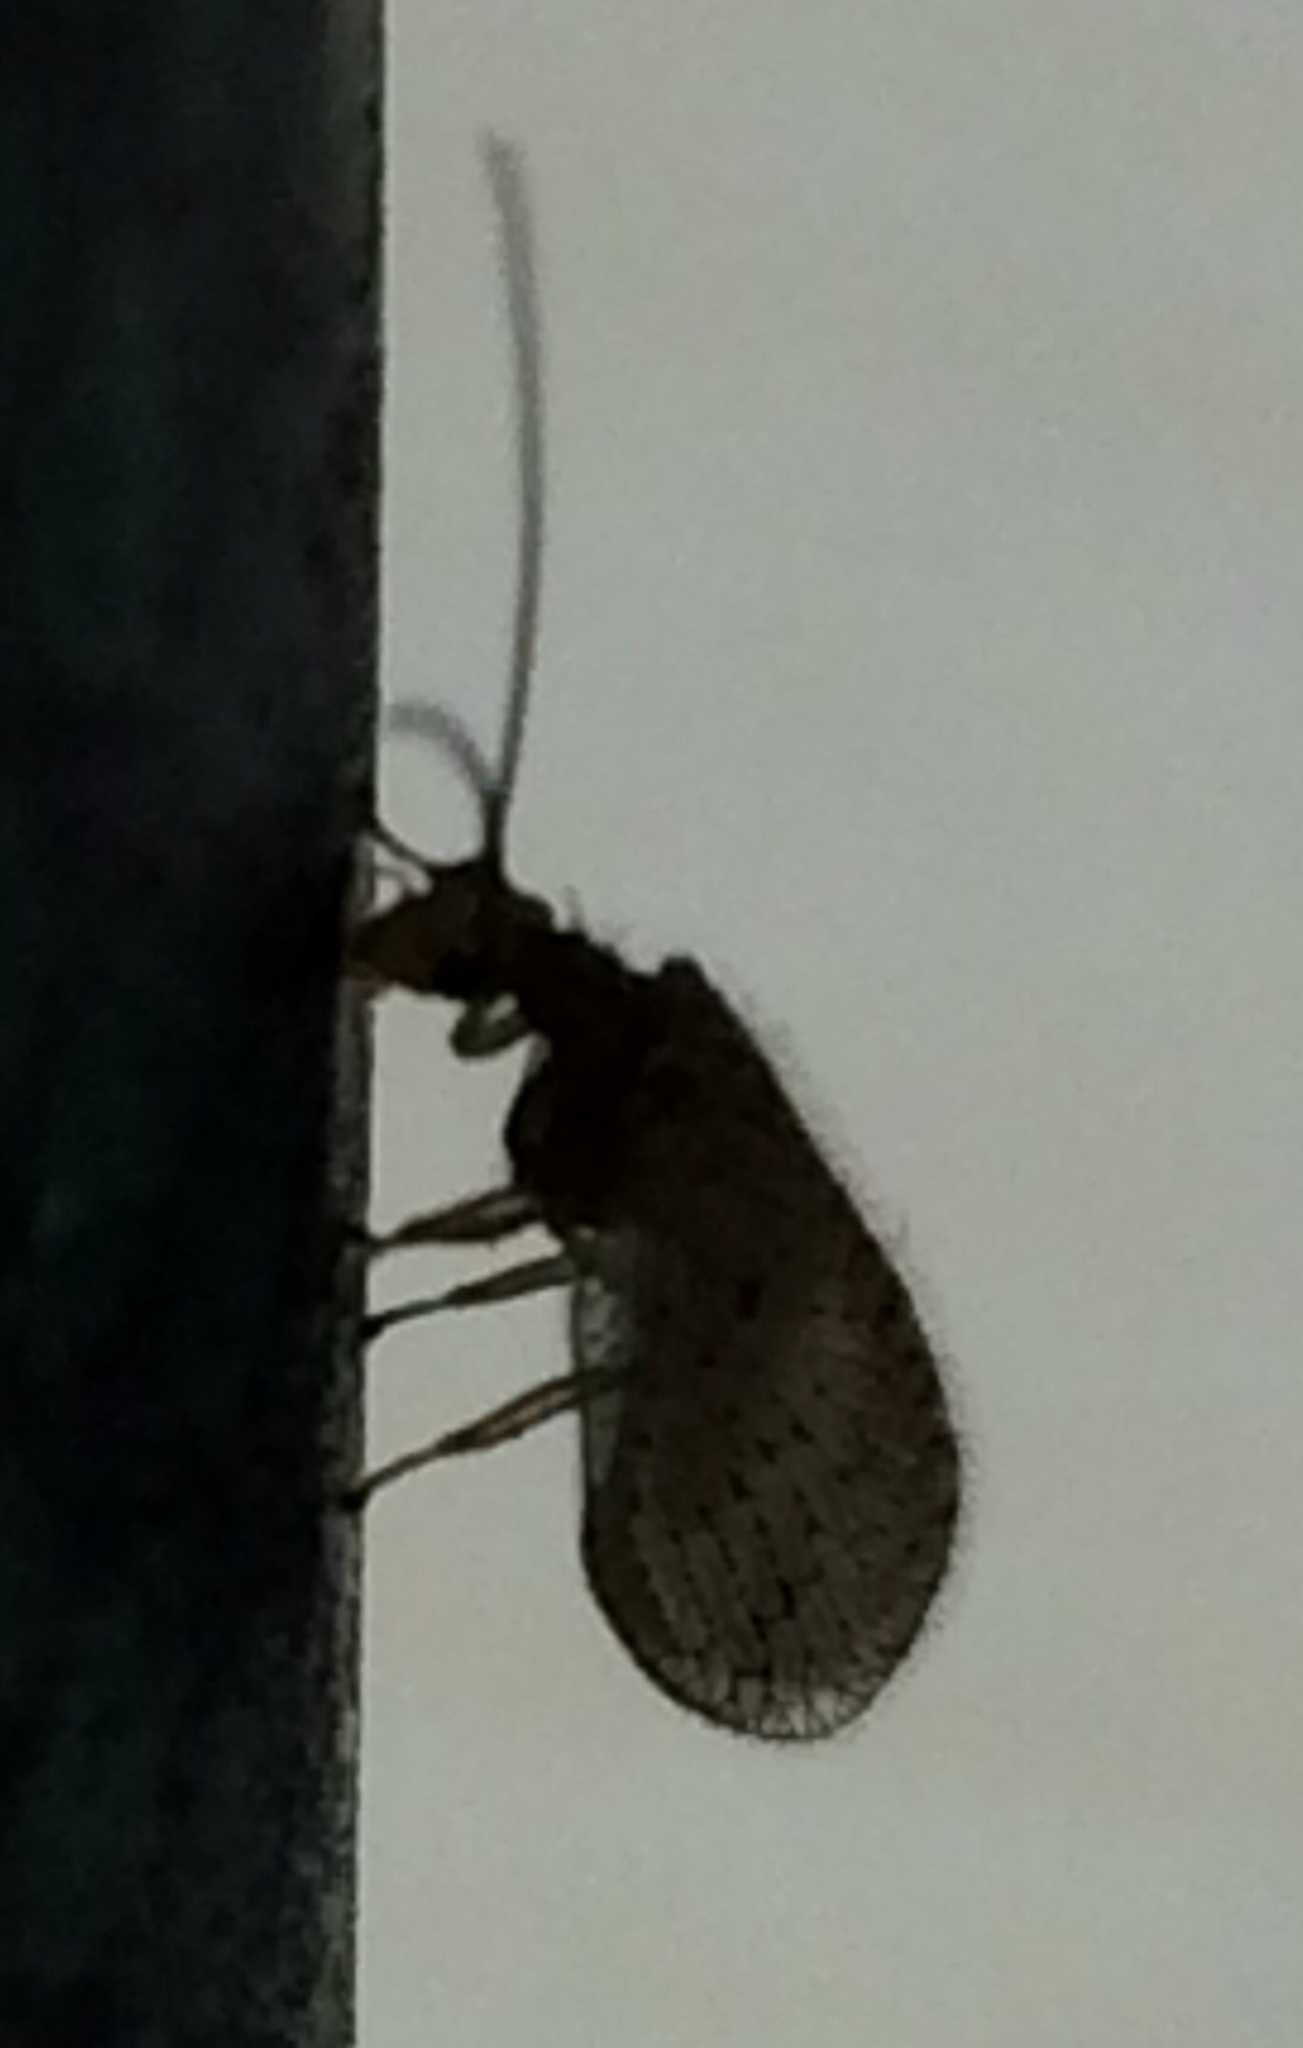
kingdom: Animalia
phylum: Arthropoda
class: Insecta
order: Neuroptera
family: Hemerobiidae
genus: Micromus
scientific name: Micromus tasmaniae
